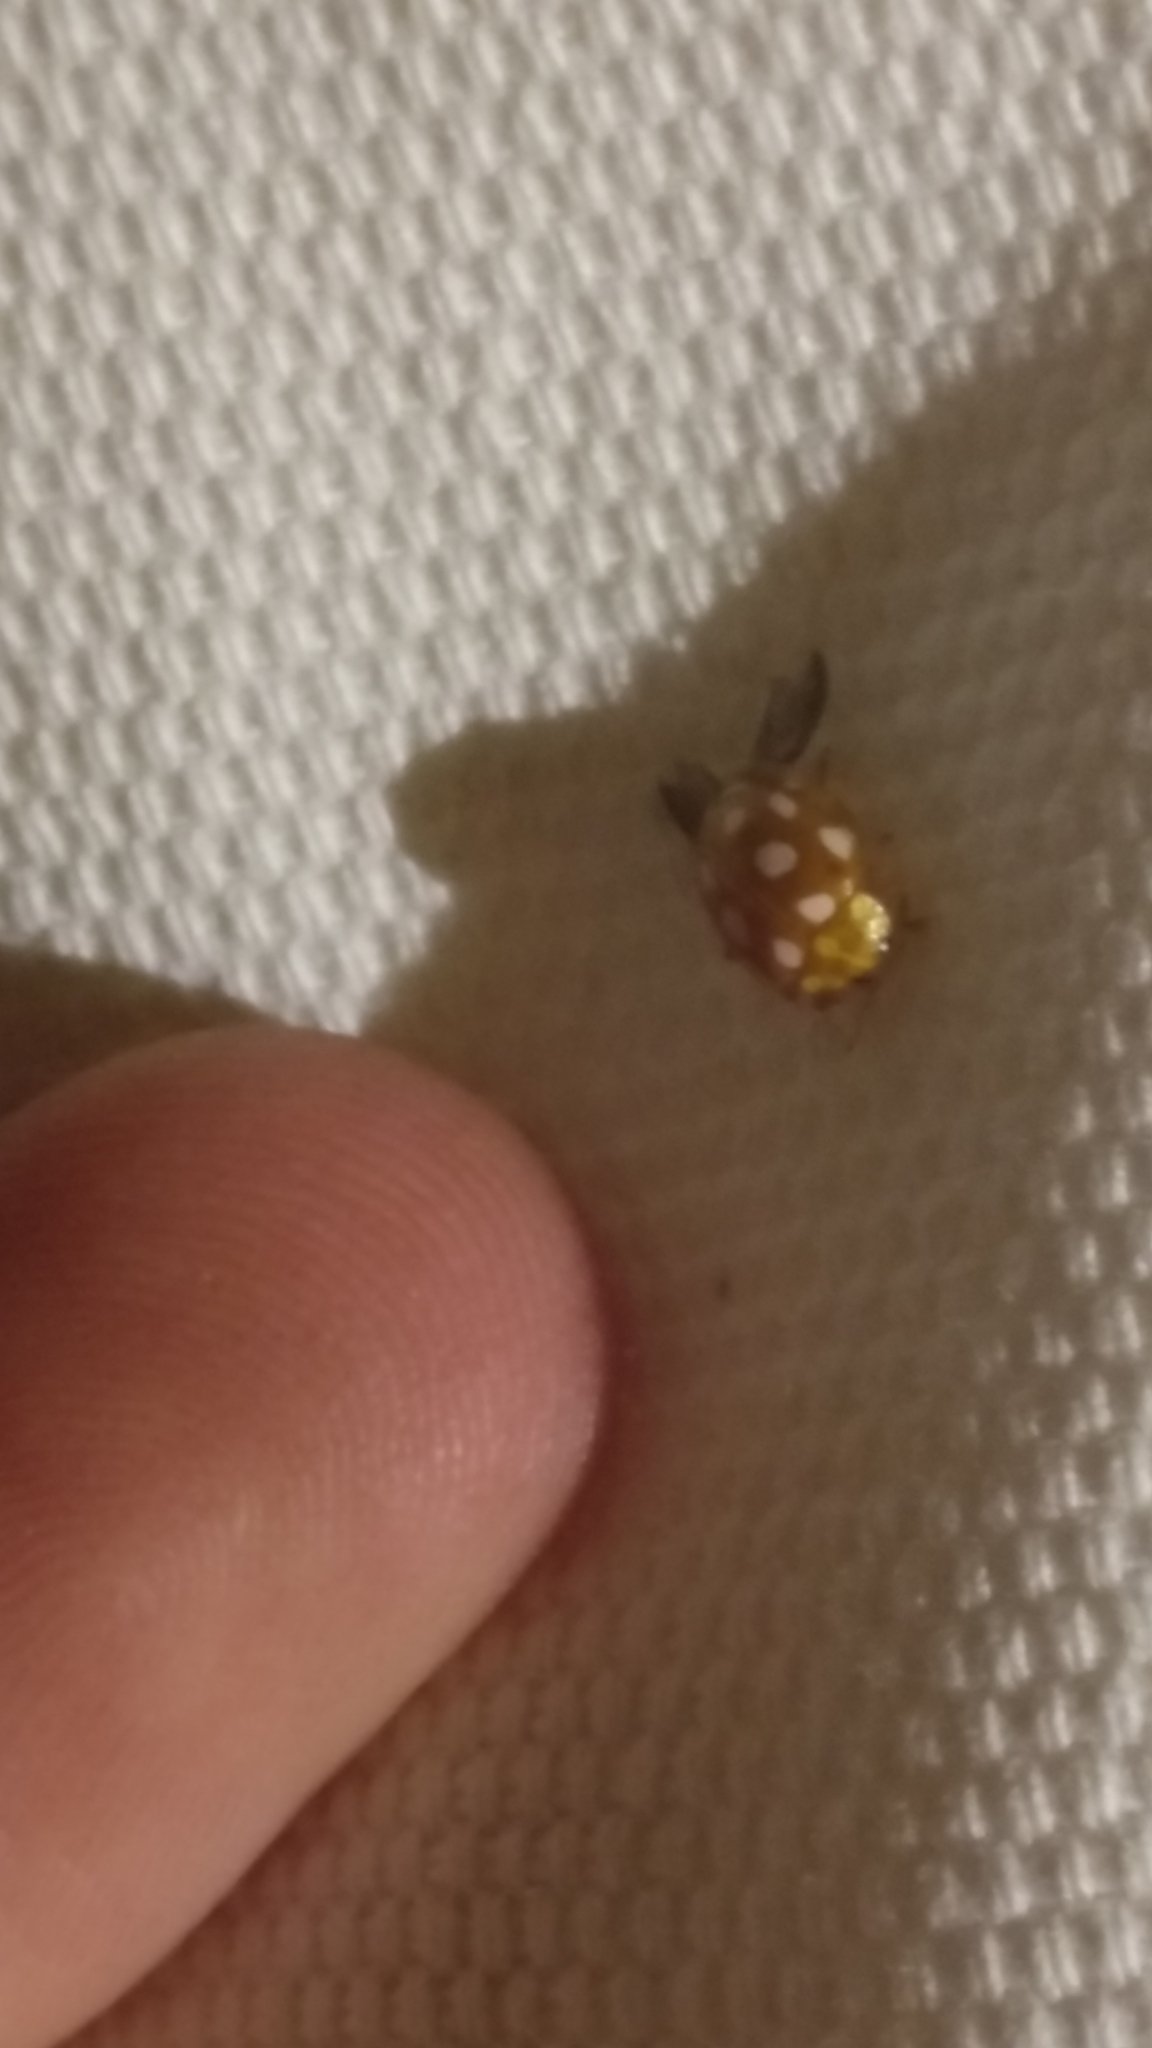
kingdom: Animalia
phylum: Arthropoda
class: Insecta
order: Coleoptera
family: Coccinellidae
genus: Halyzia
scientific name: Halyzia sedecimguttata
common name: Orange ladybird
